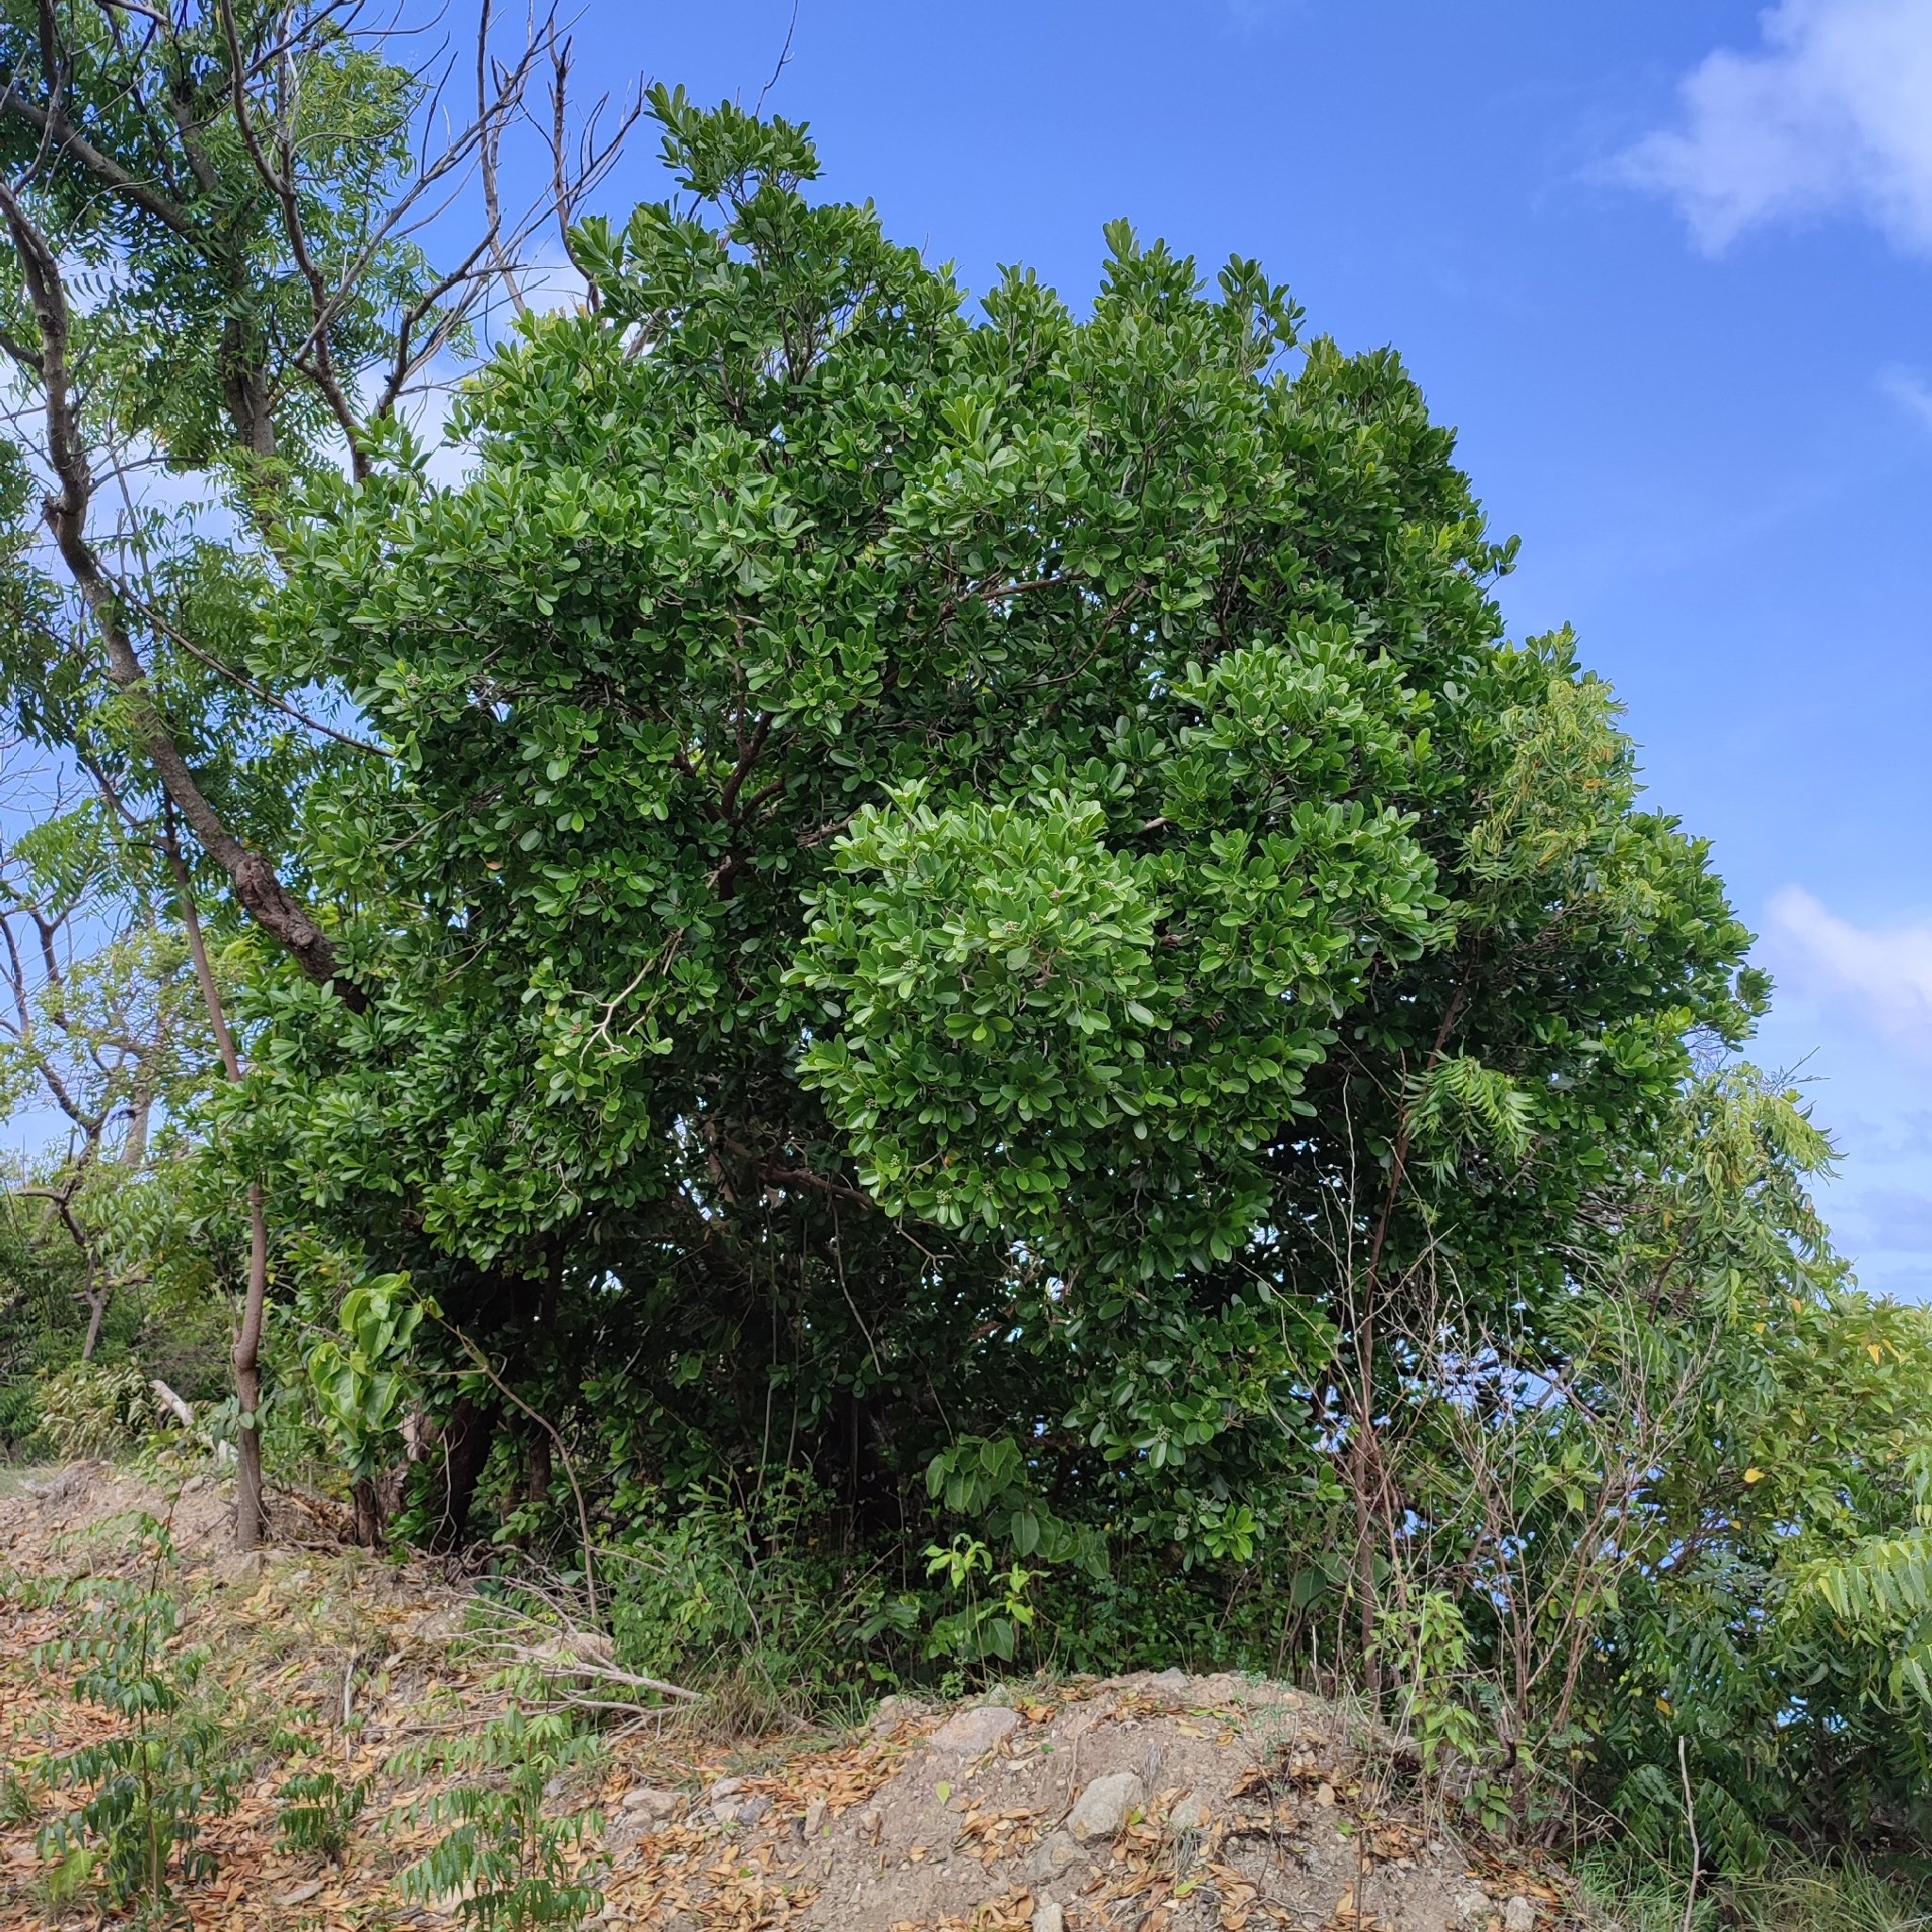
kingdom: Plantae
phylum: Tracheophyta
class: Magnoliopsida
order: Canellales
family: Canellaceae
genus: Canella
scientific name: Canella winterana
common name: Canella
